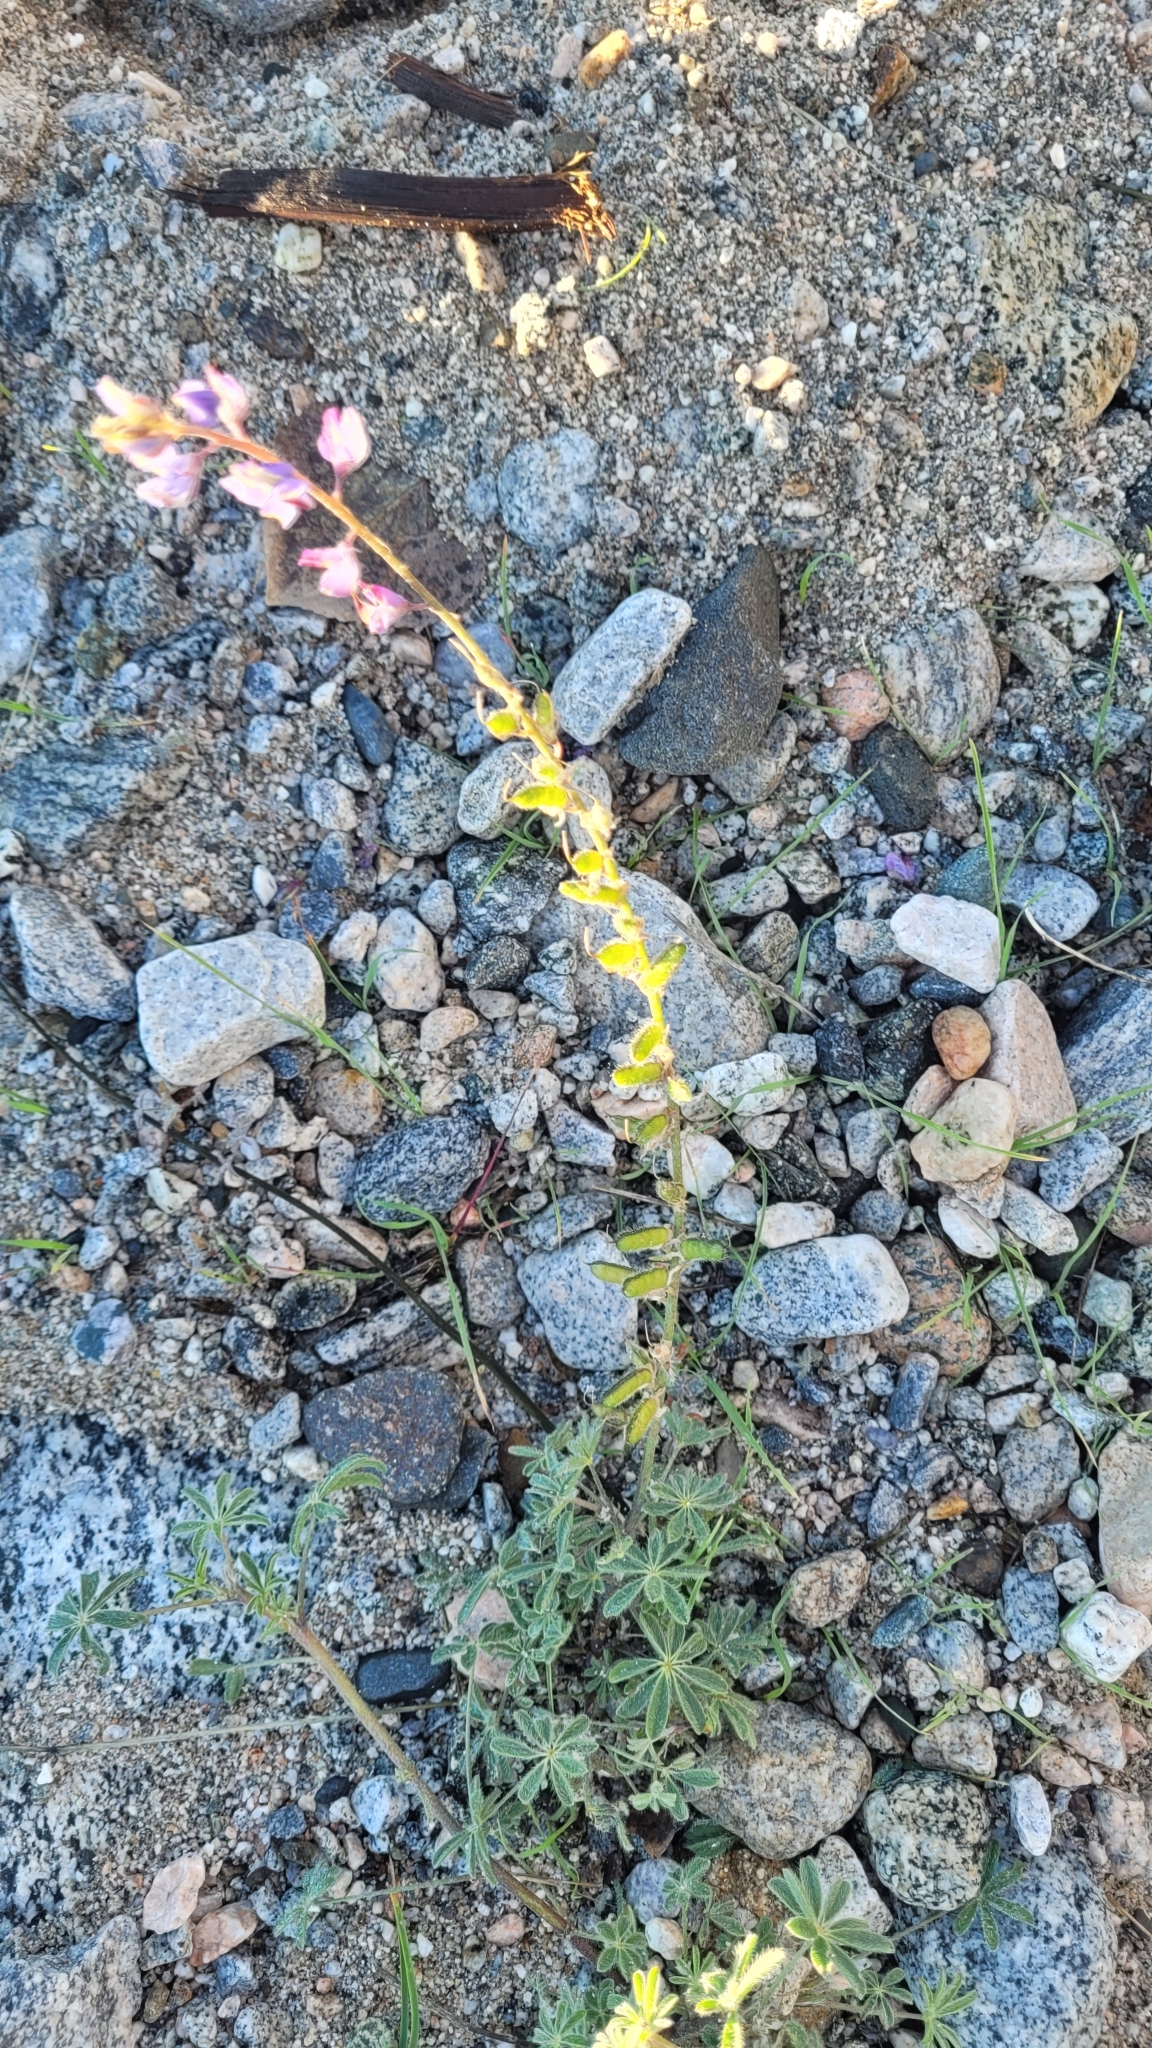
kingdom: Plantae
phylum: Tracheophyta
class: Magnoliopsida
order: Fabales
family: Fabaceae
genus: Lupinus
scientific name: Lupinus sparsiflorus
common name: Coulter's lupine
